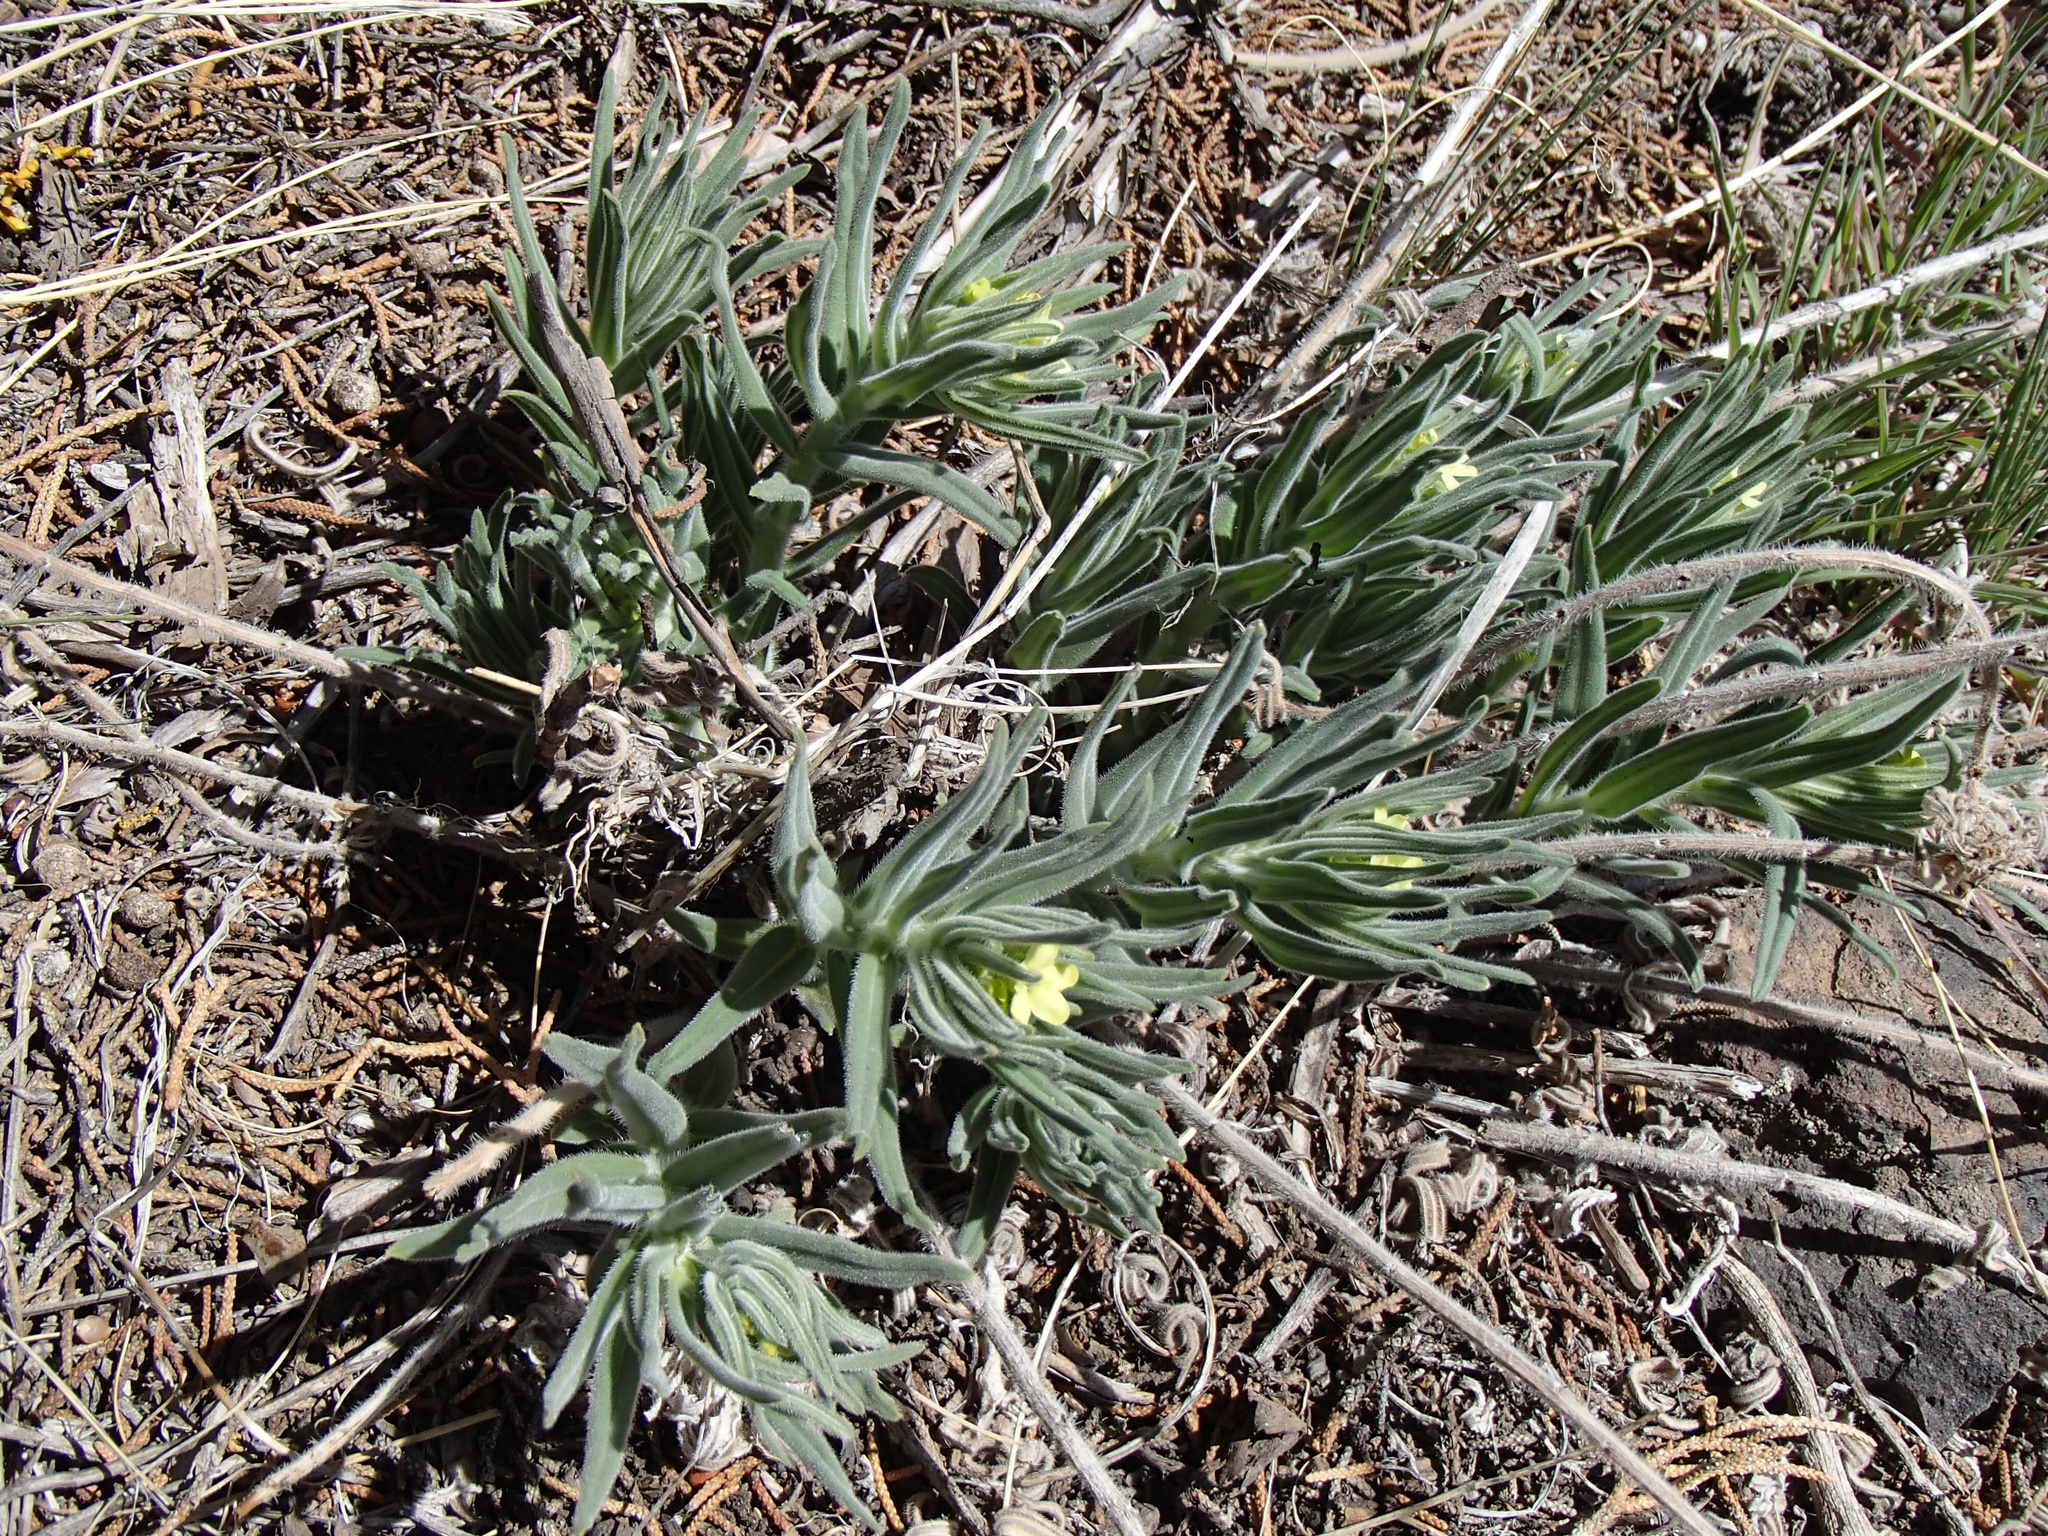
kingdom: Plantae
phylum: Tracheophyta
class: Magnoliopsida
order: Boraginales
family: Boraginaceae
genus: Lithospermum
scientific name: Lithospermum ruderale
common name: Western gromwell
